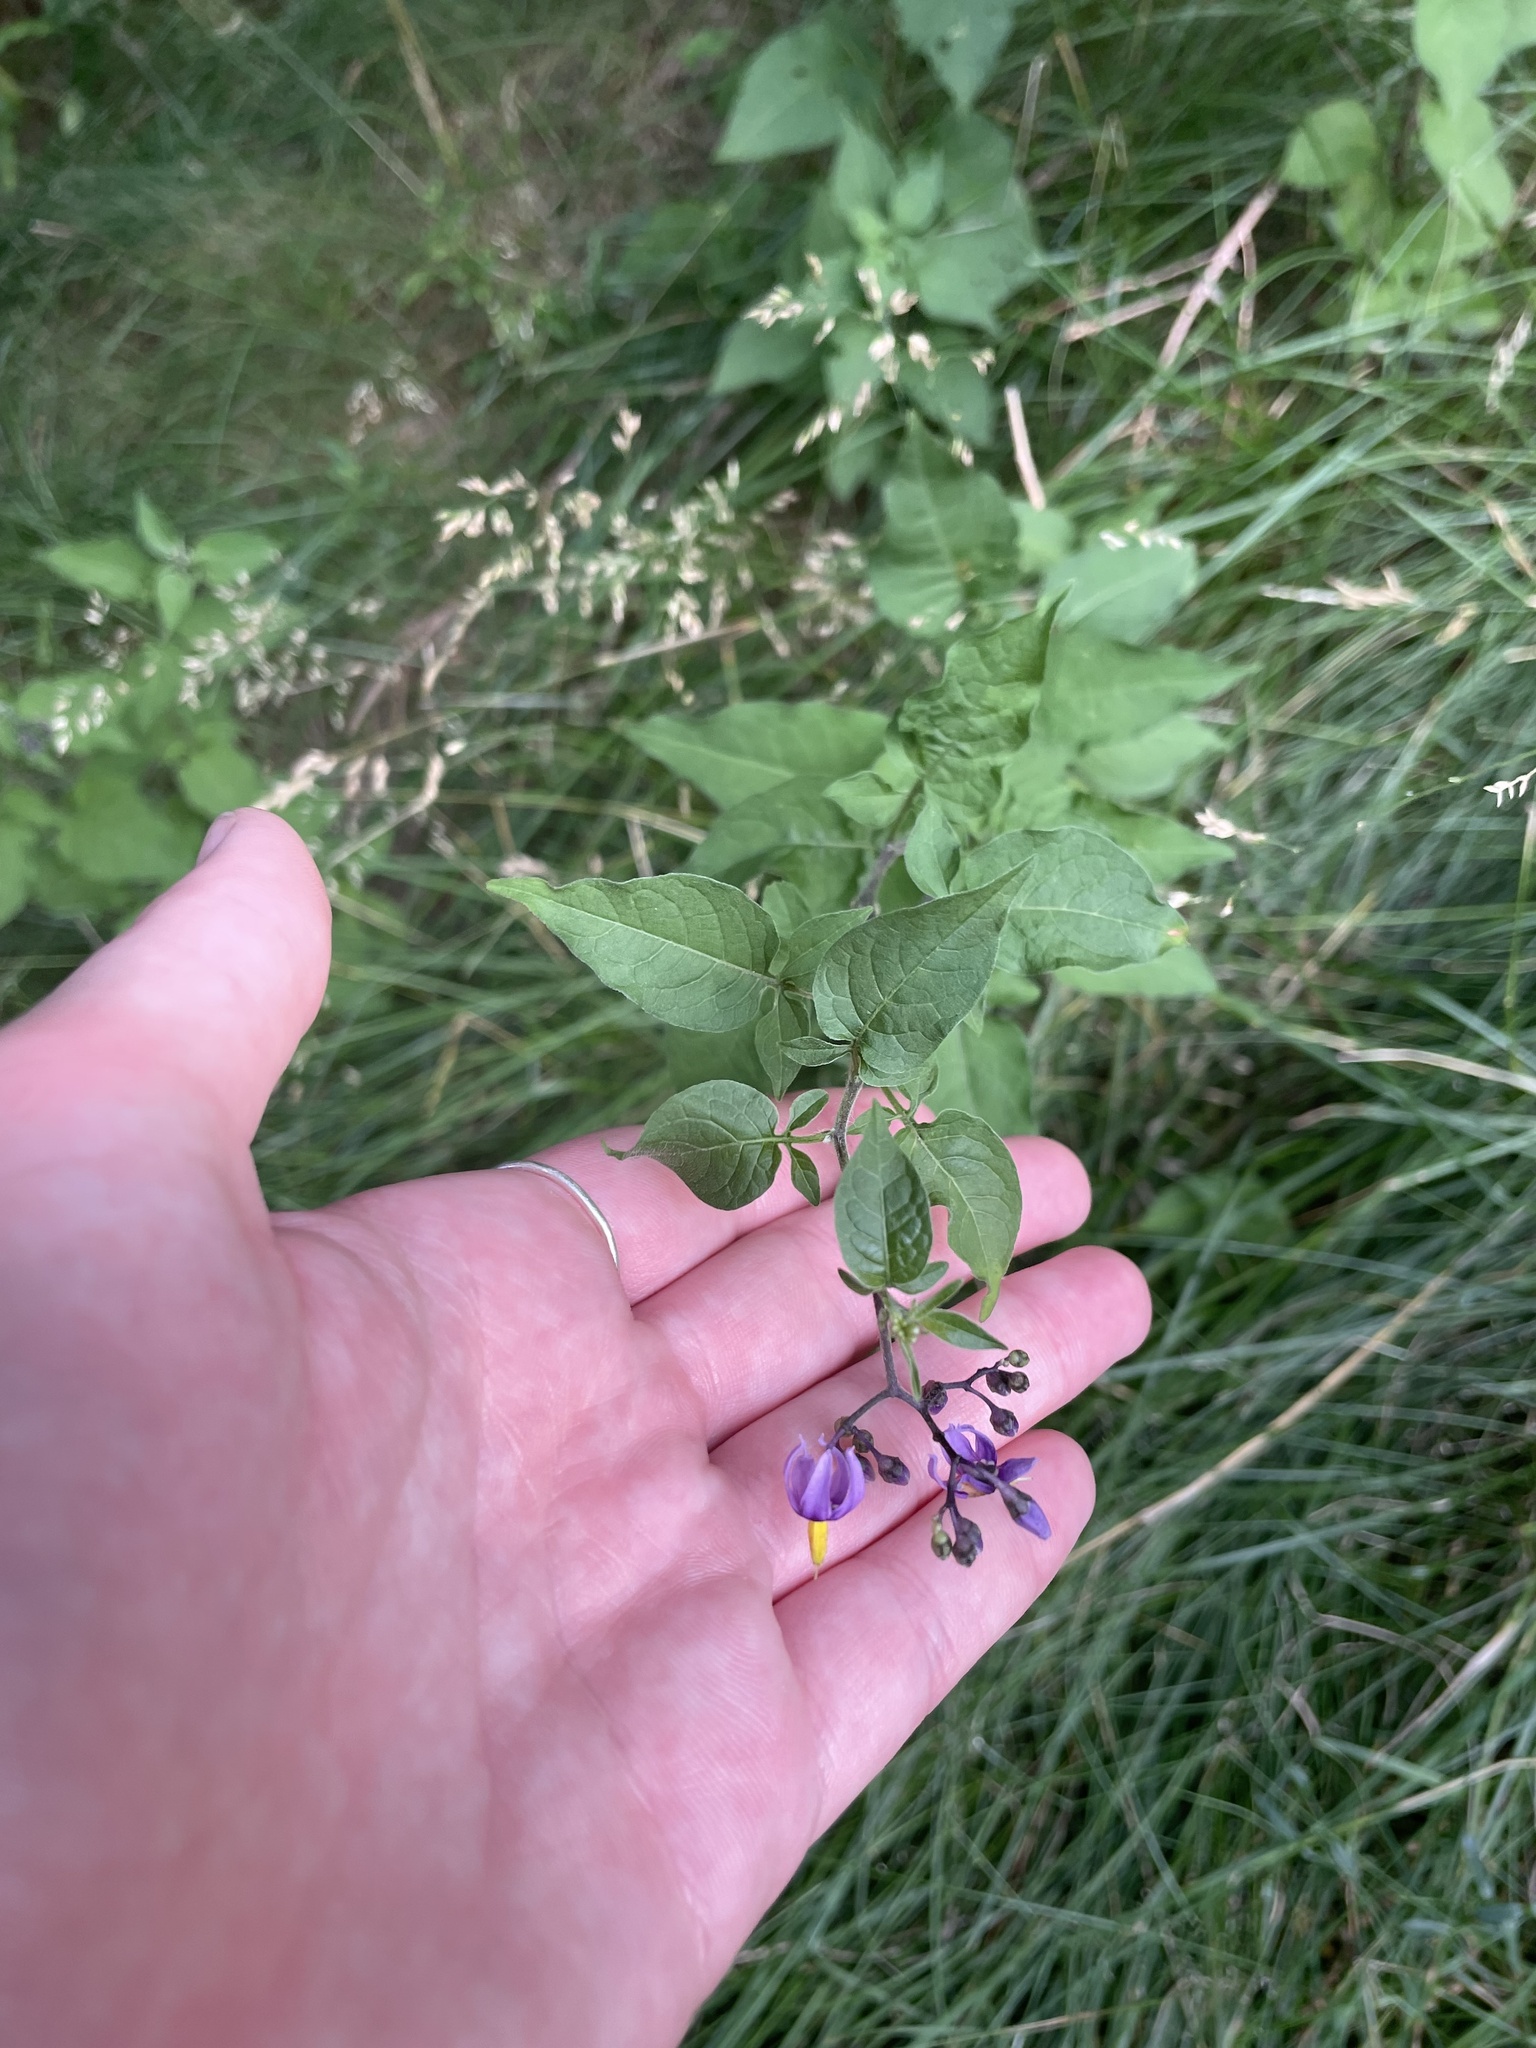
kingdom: Plantae
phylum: Tracheophyta
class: Magnoliopsida
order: Solanales
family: Solanaceae
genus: Solanum
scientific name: Solanum dulcamara
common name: Climbing nightshade
